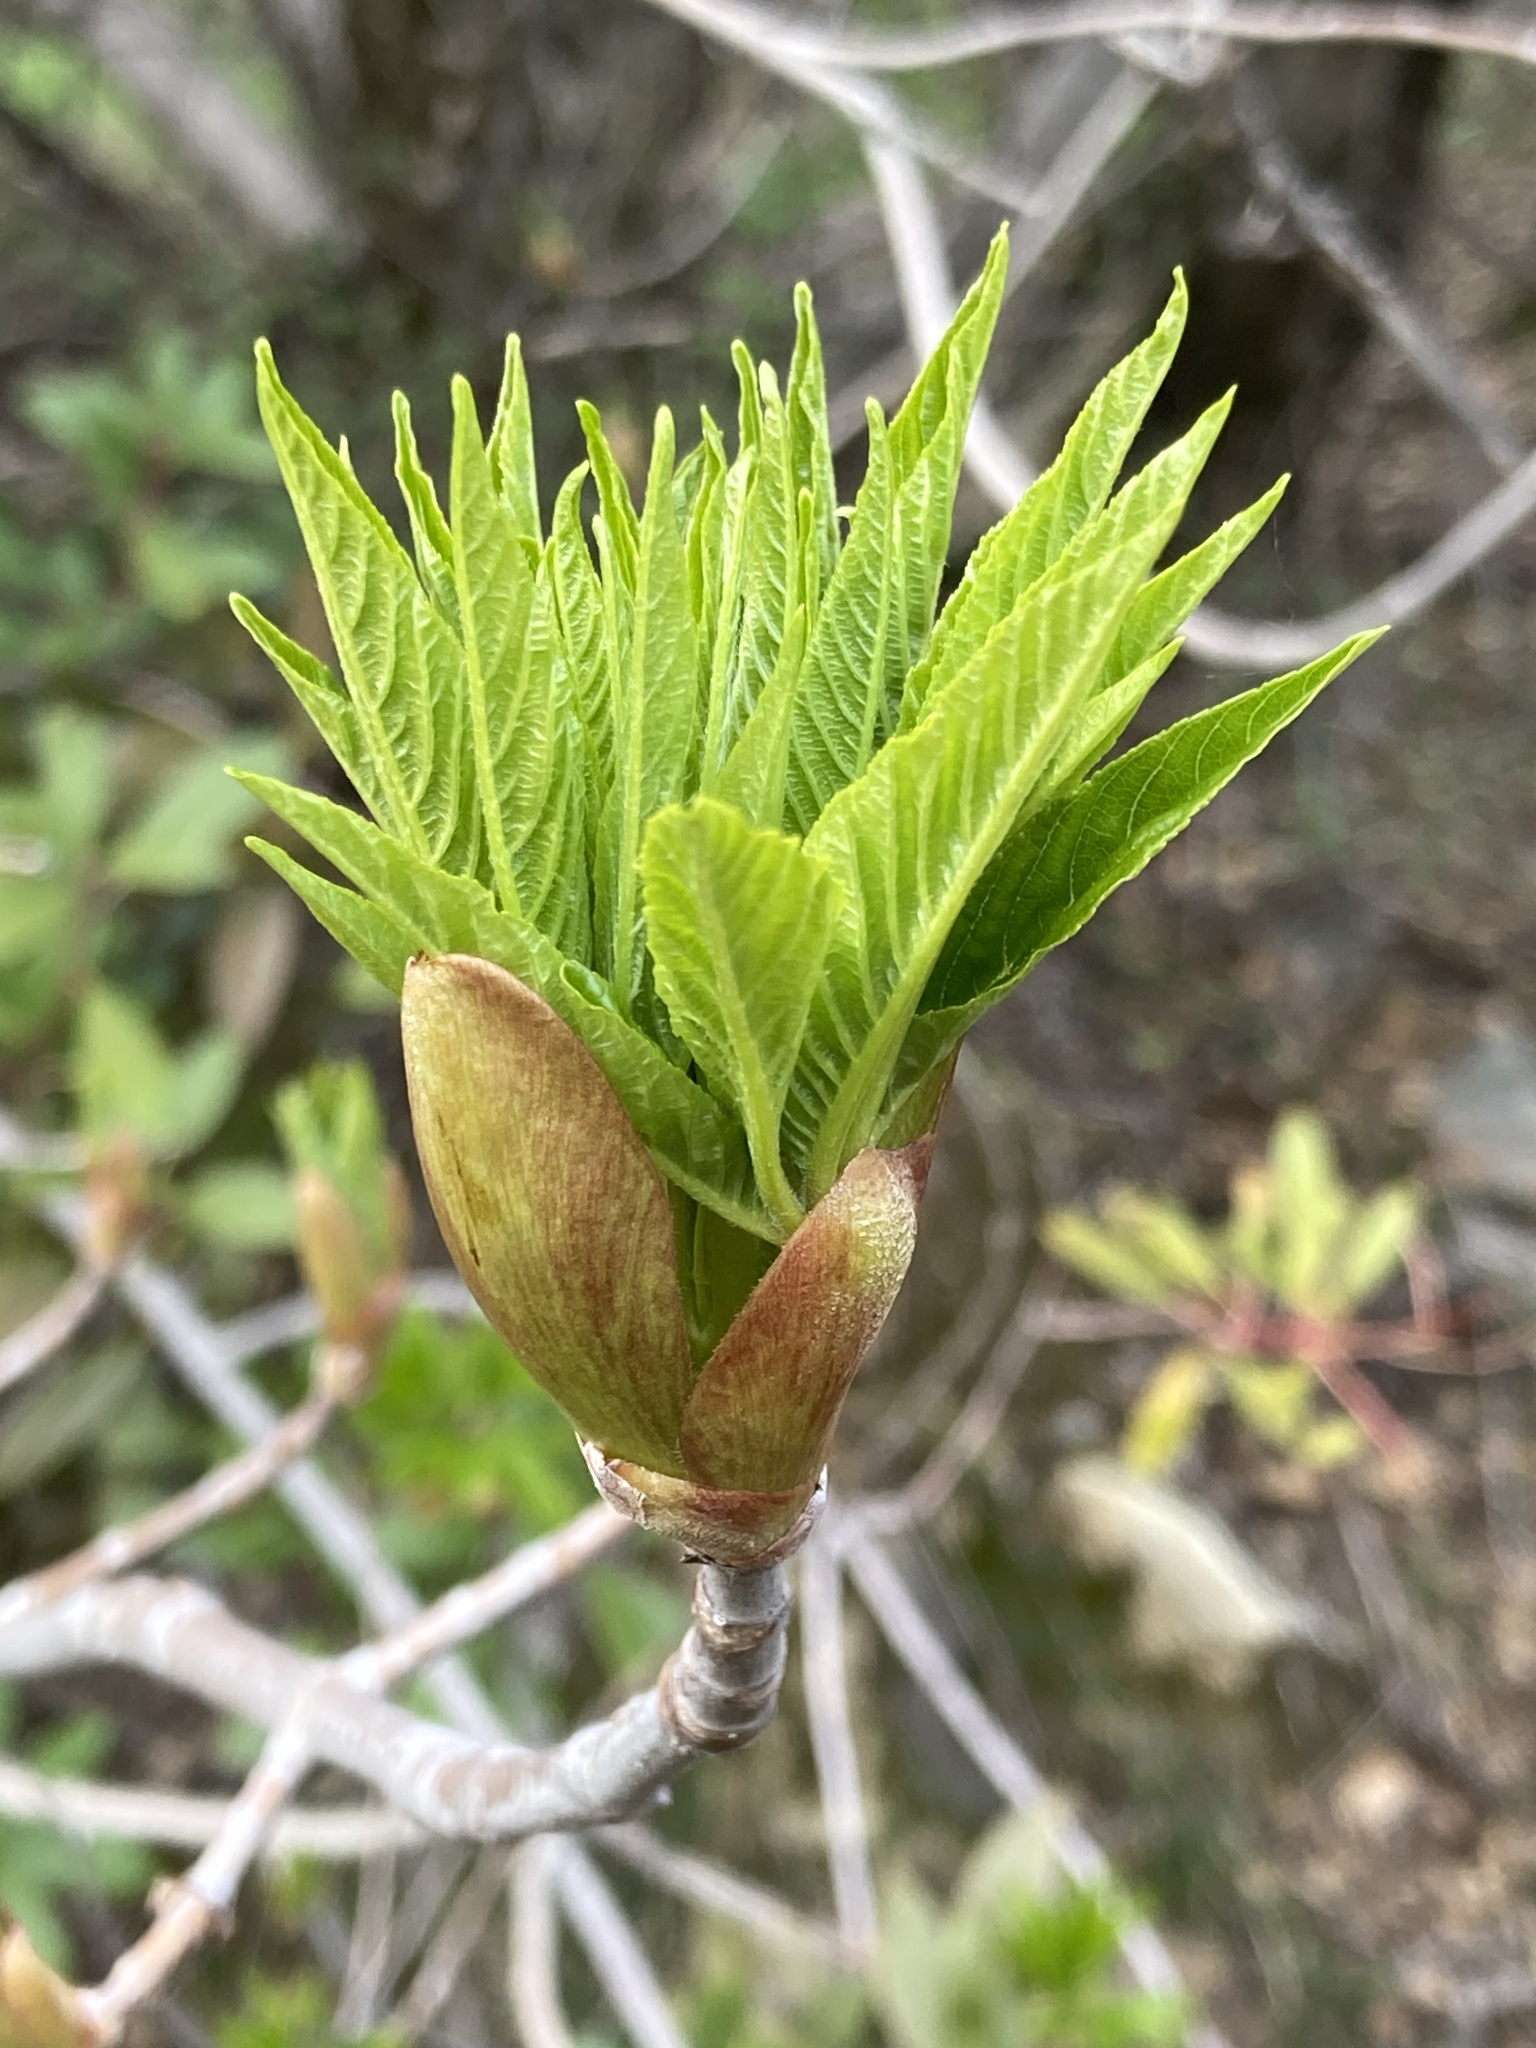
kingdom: Plantae
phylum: Tracheophyta
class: Magnoliopsida
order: Sapindales
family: Sapindaceae
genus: Aesculus
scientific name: Aesculus californica
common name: California buckeye
